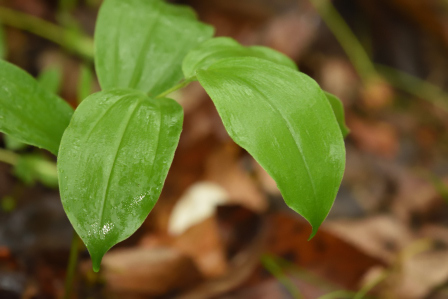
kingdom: Plantae
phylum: Tracheophyta
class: Liliopsida
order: Asparagales
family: Asparagaceae
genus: Maianthemum
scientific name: Maianthemum racemosum
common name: False spikenard
